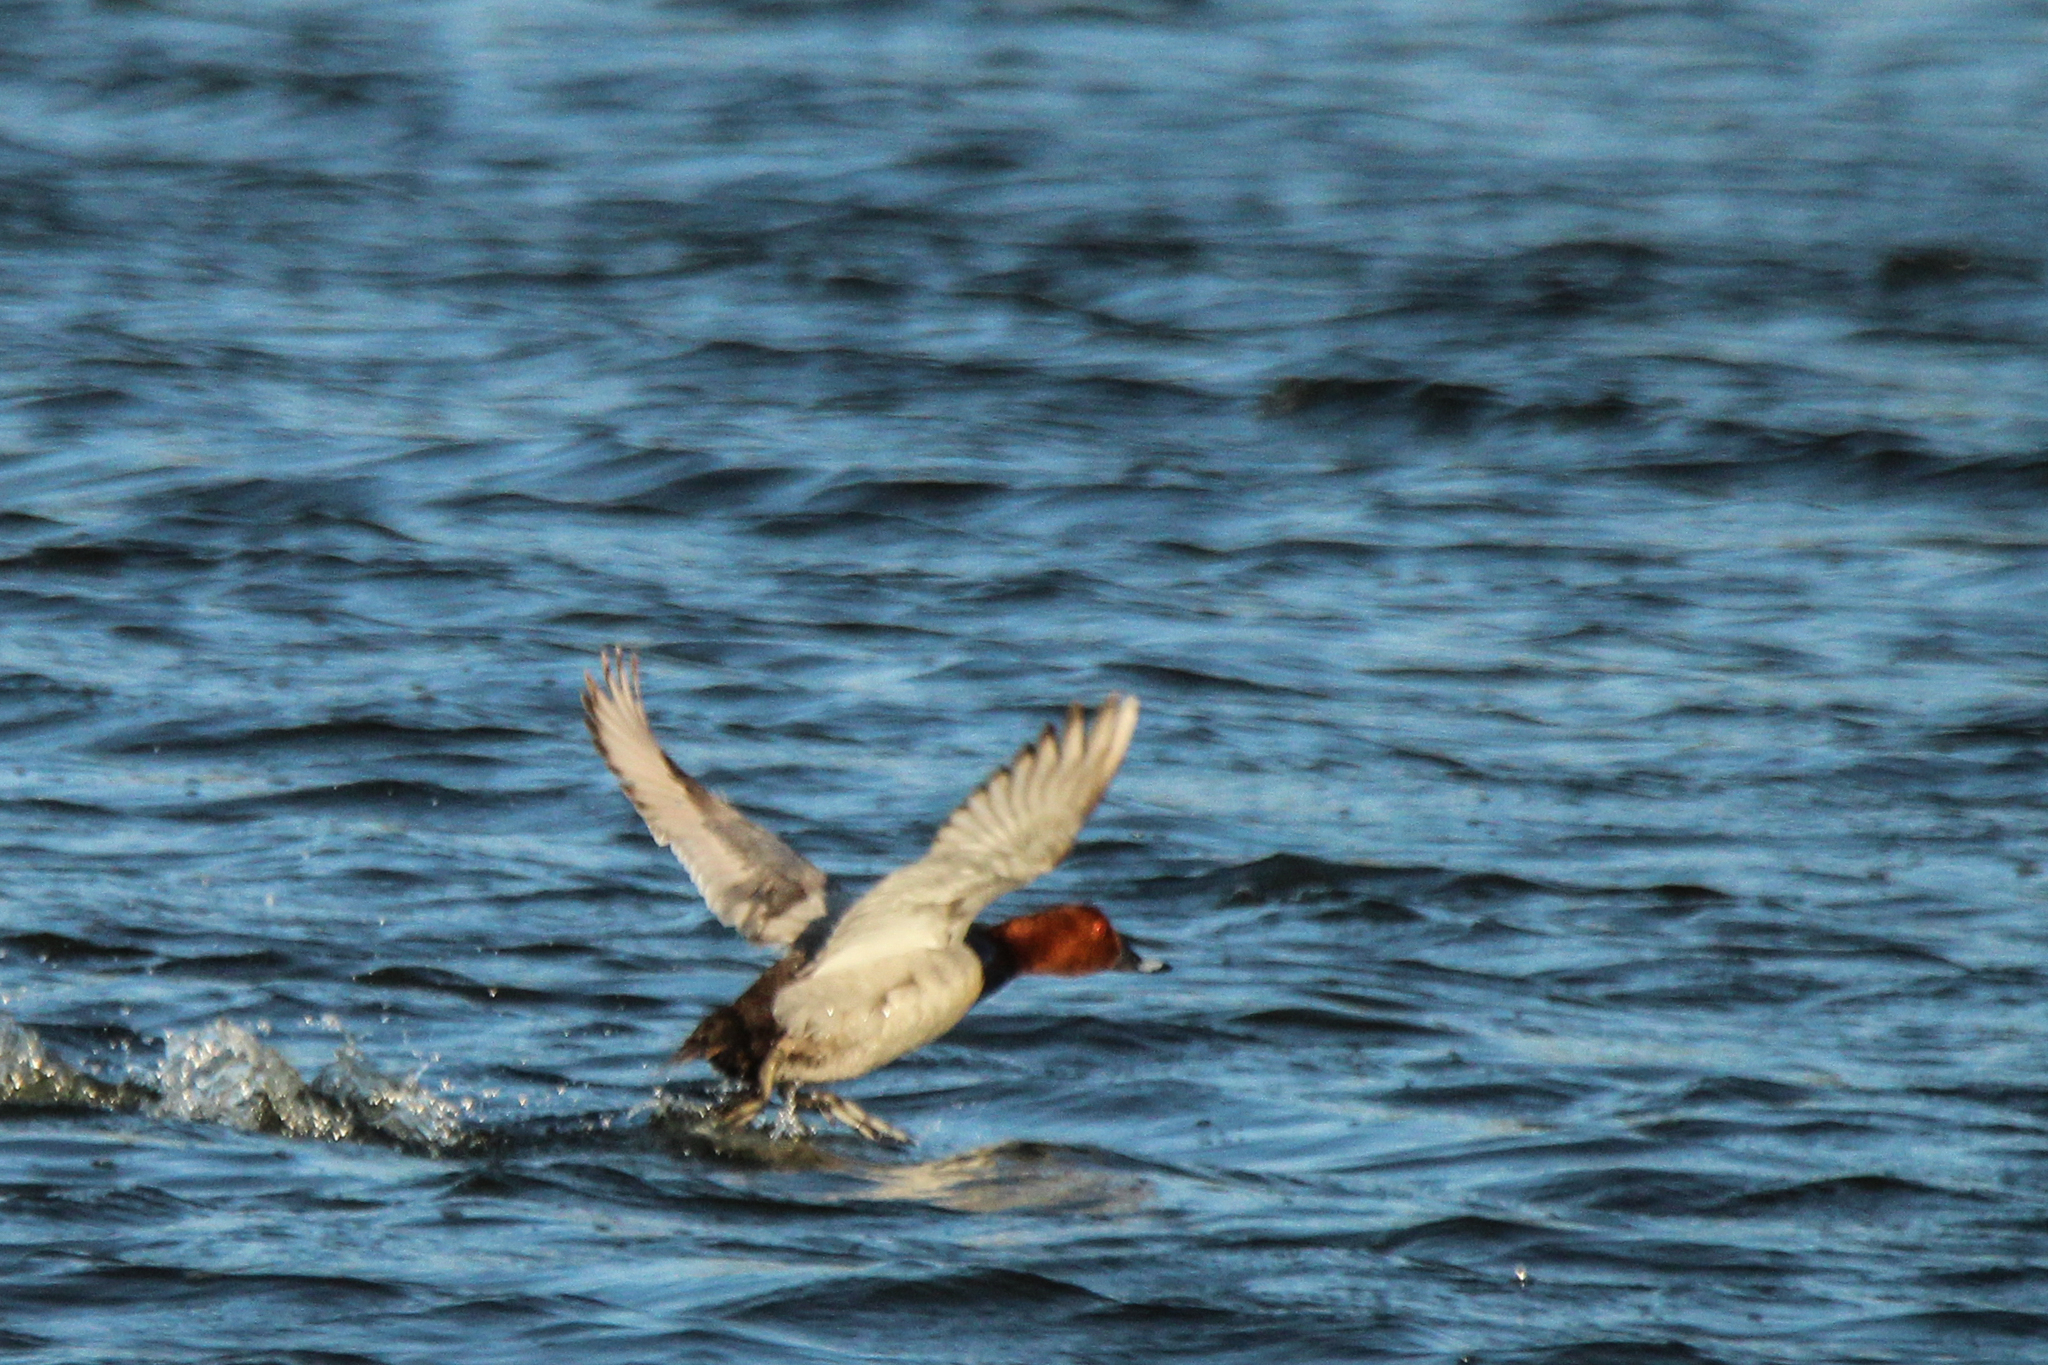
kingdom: Animalia
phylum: Chordata
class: Aves
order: Anseriformes
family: Anatidae
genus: Aythya
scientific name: Aythya ferina
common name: Common pochard
